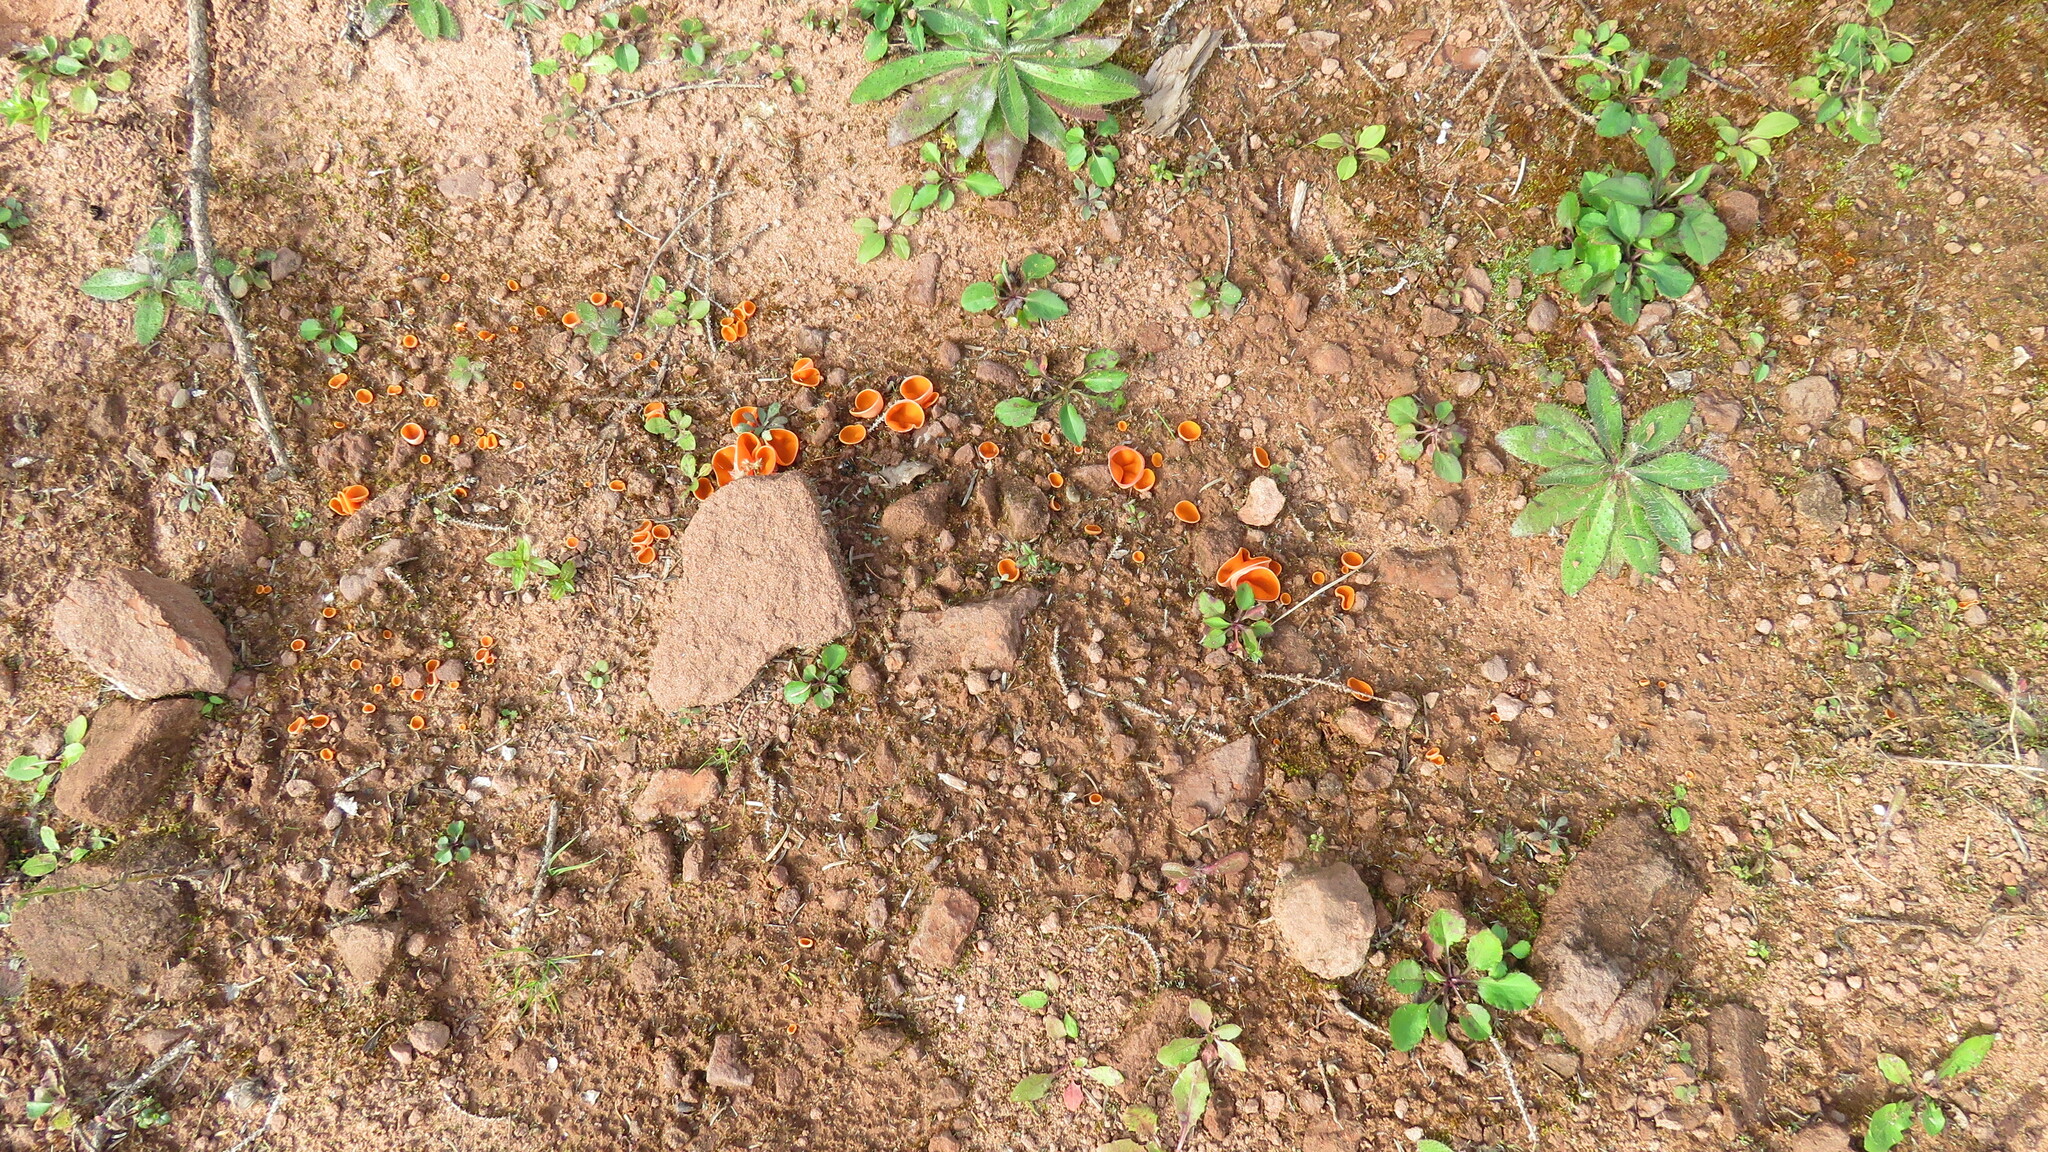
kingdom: Fungi
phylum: Ascomycota
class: Pezizomycetes
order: Pezizales
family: Pyronemataceae
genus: Aleuria
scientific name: Aleuria aurantia
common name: Orange peel fungus
